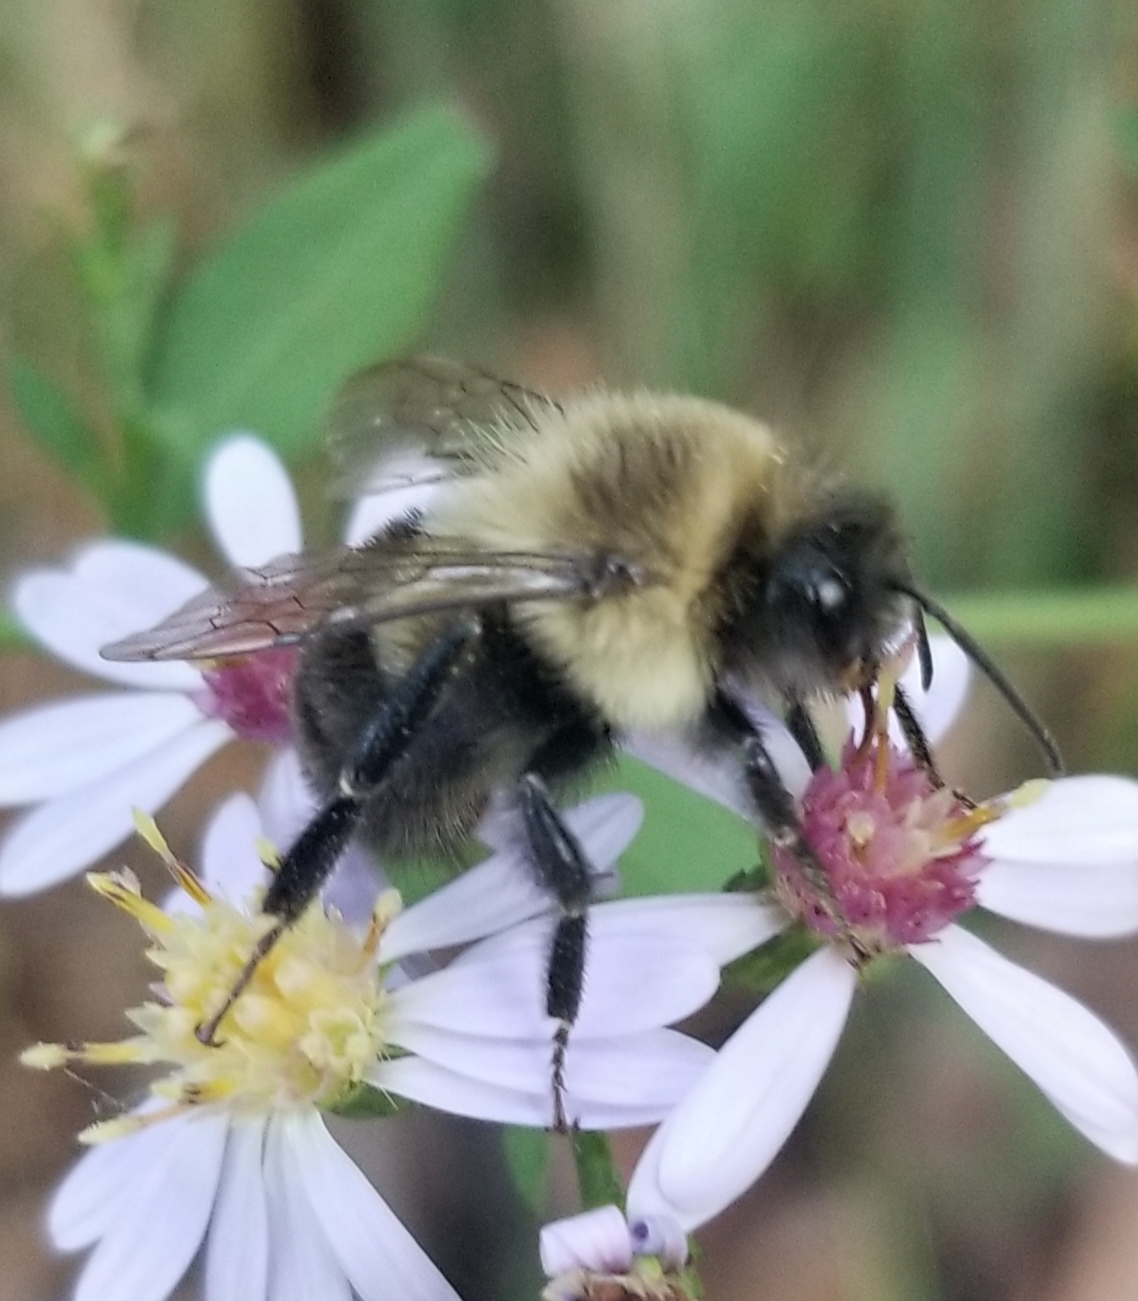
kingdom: Animalia
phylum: Arthropoda
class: Insecta
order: Hymenoptera
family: Apidae
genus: Bombus
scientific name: Bombus impatiens
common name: Common eastern bumble bee
